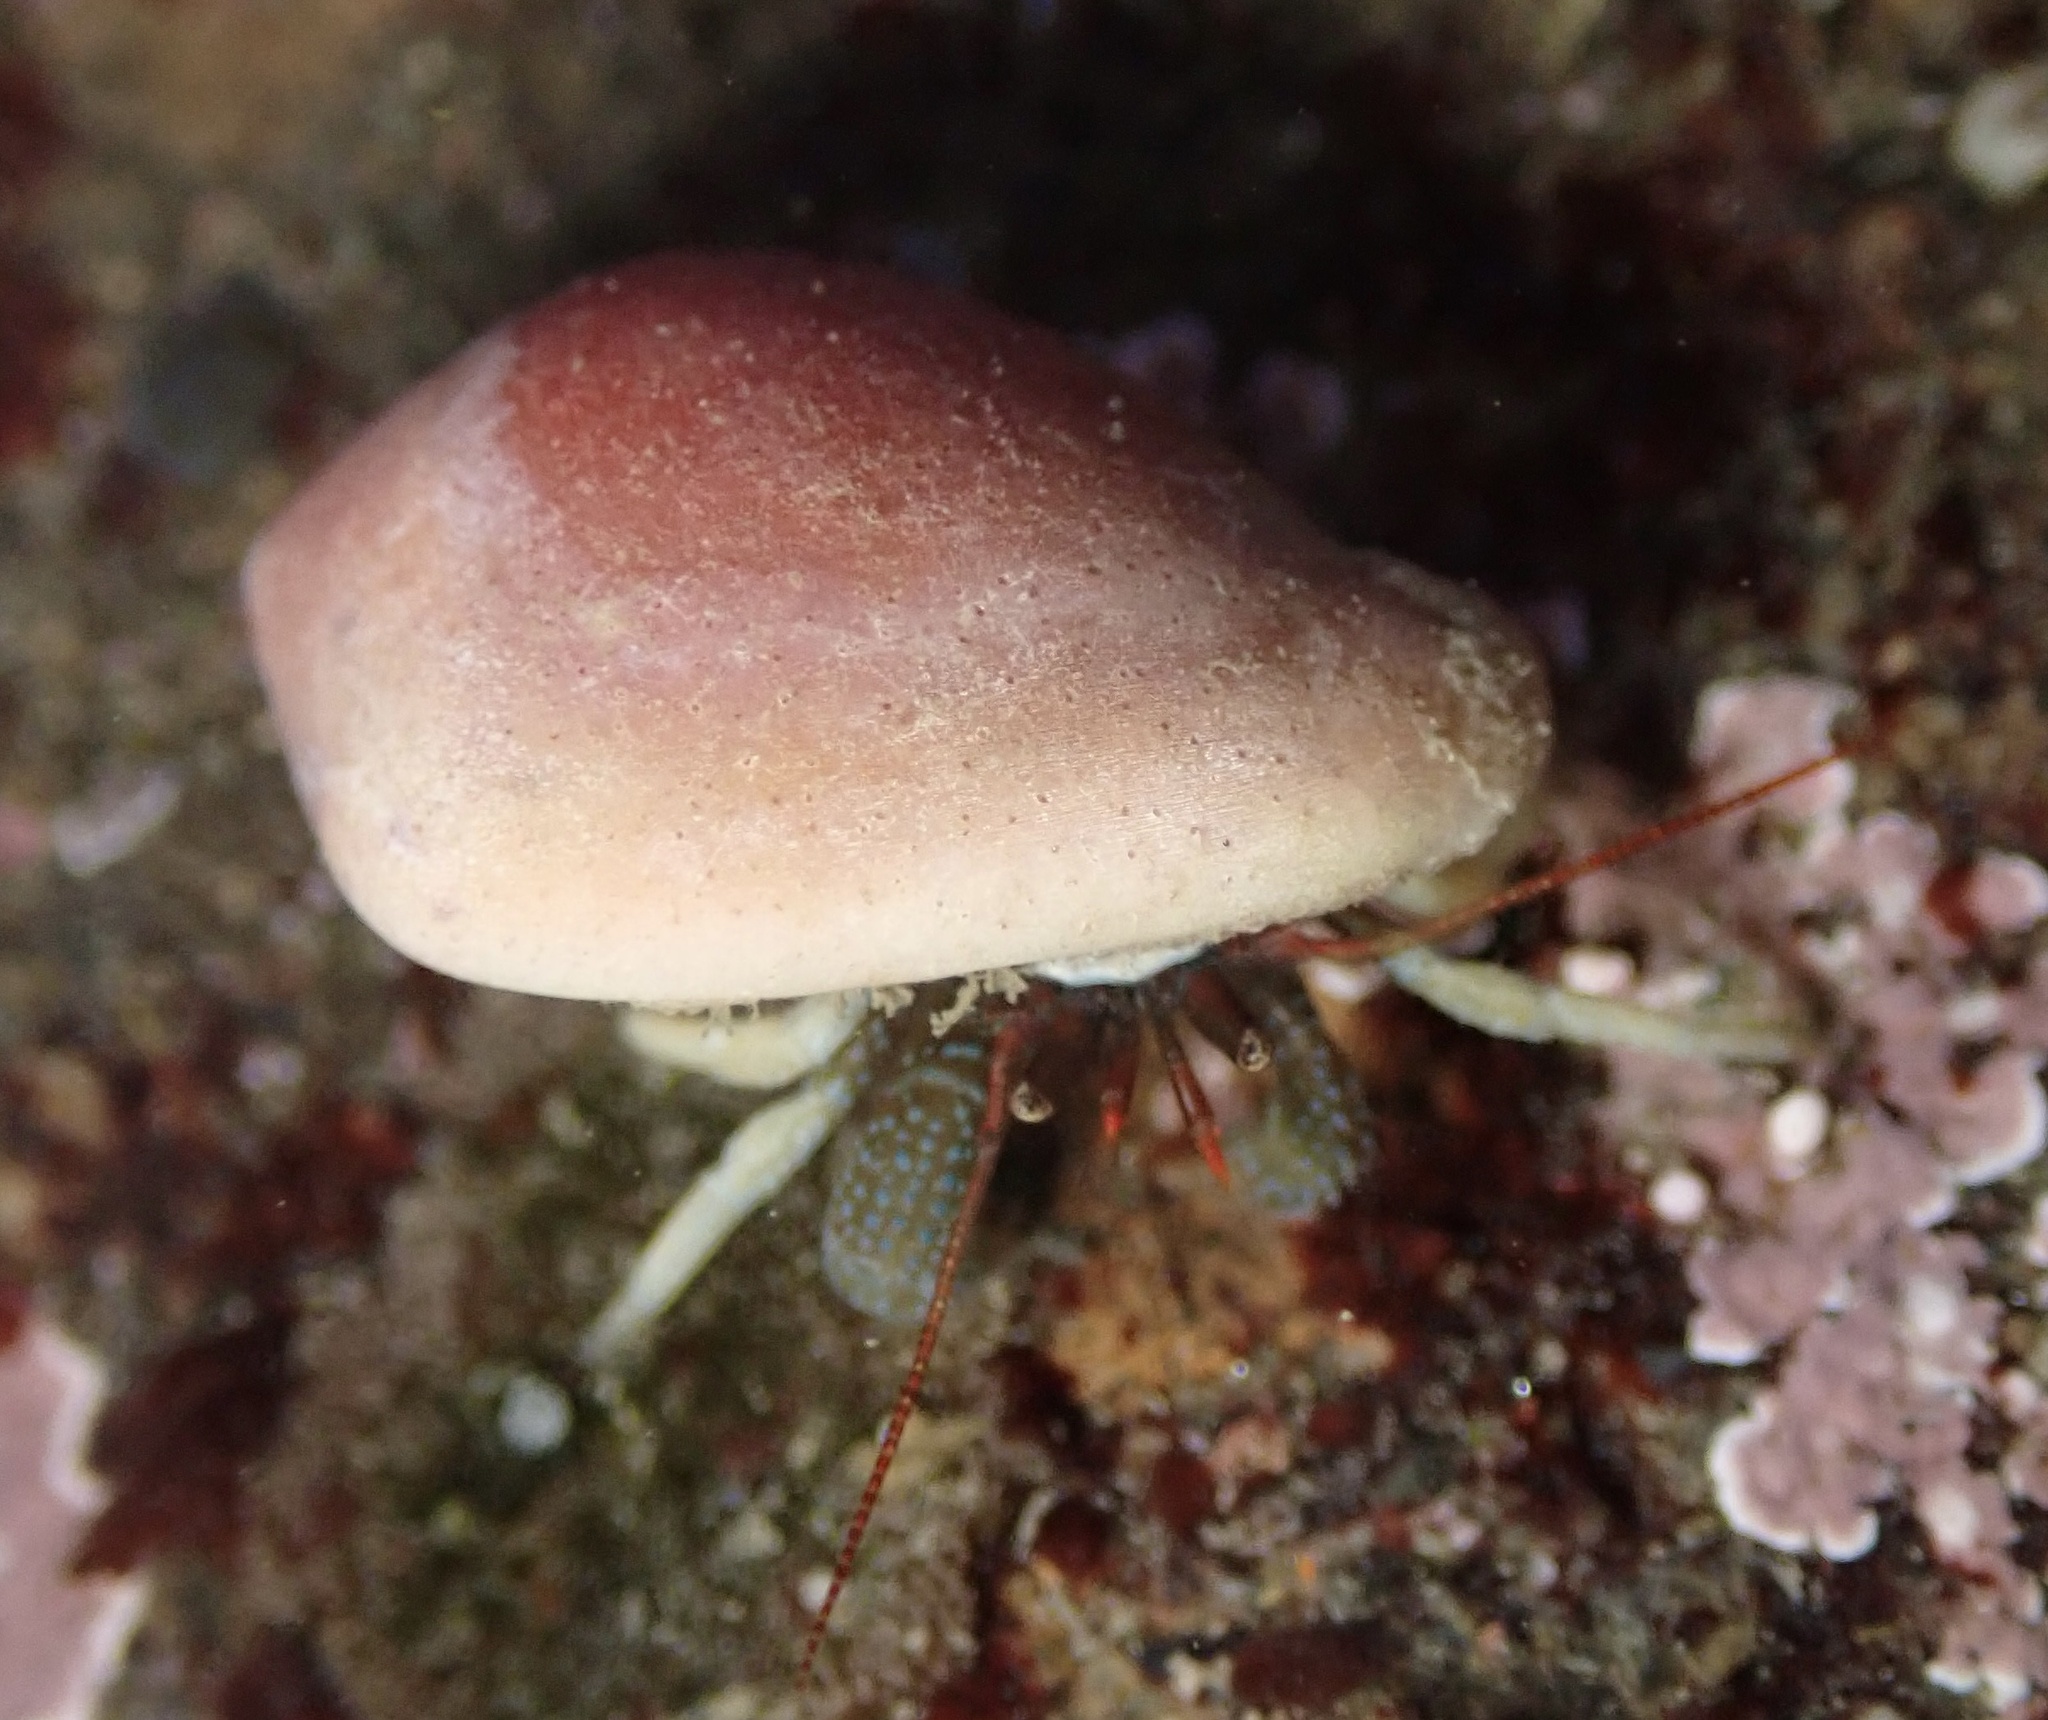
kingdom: Animalia
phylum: Arthropoda
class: Malacostraca
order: Decapoda
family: Paguridae
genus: Pagurus
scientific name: Pagurus granosimanus
